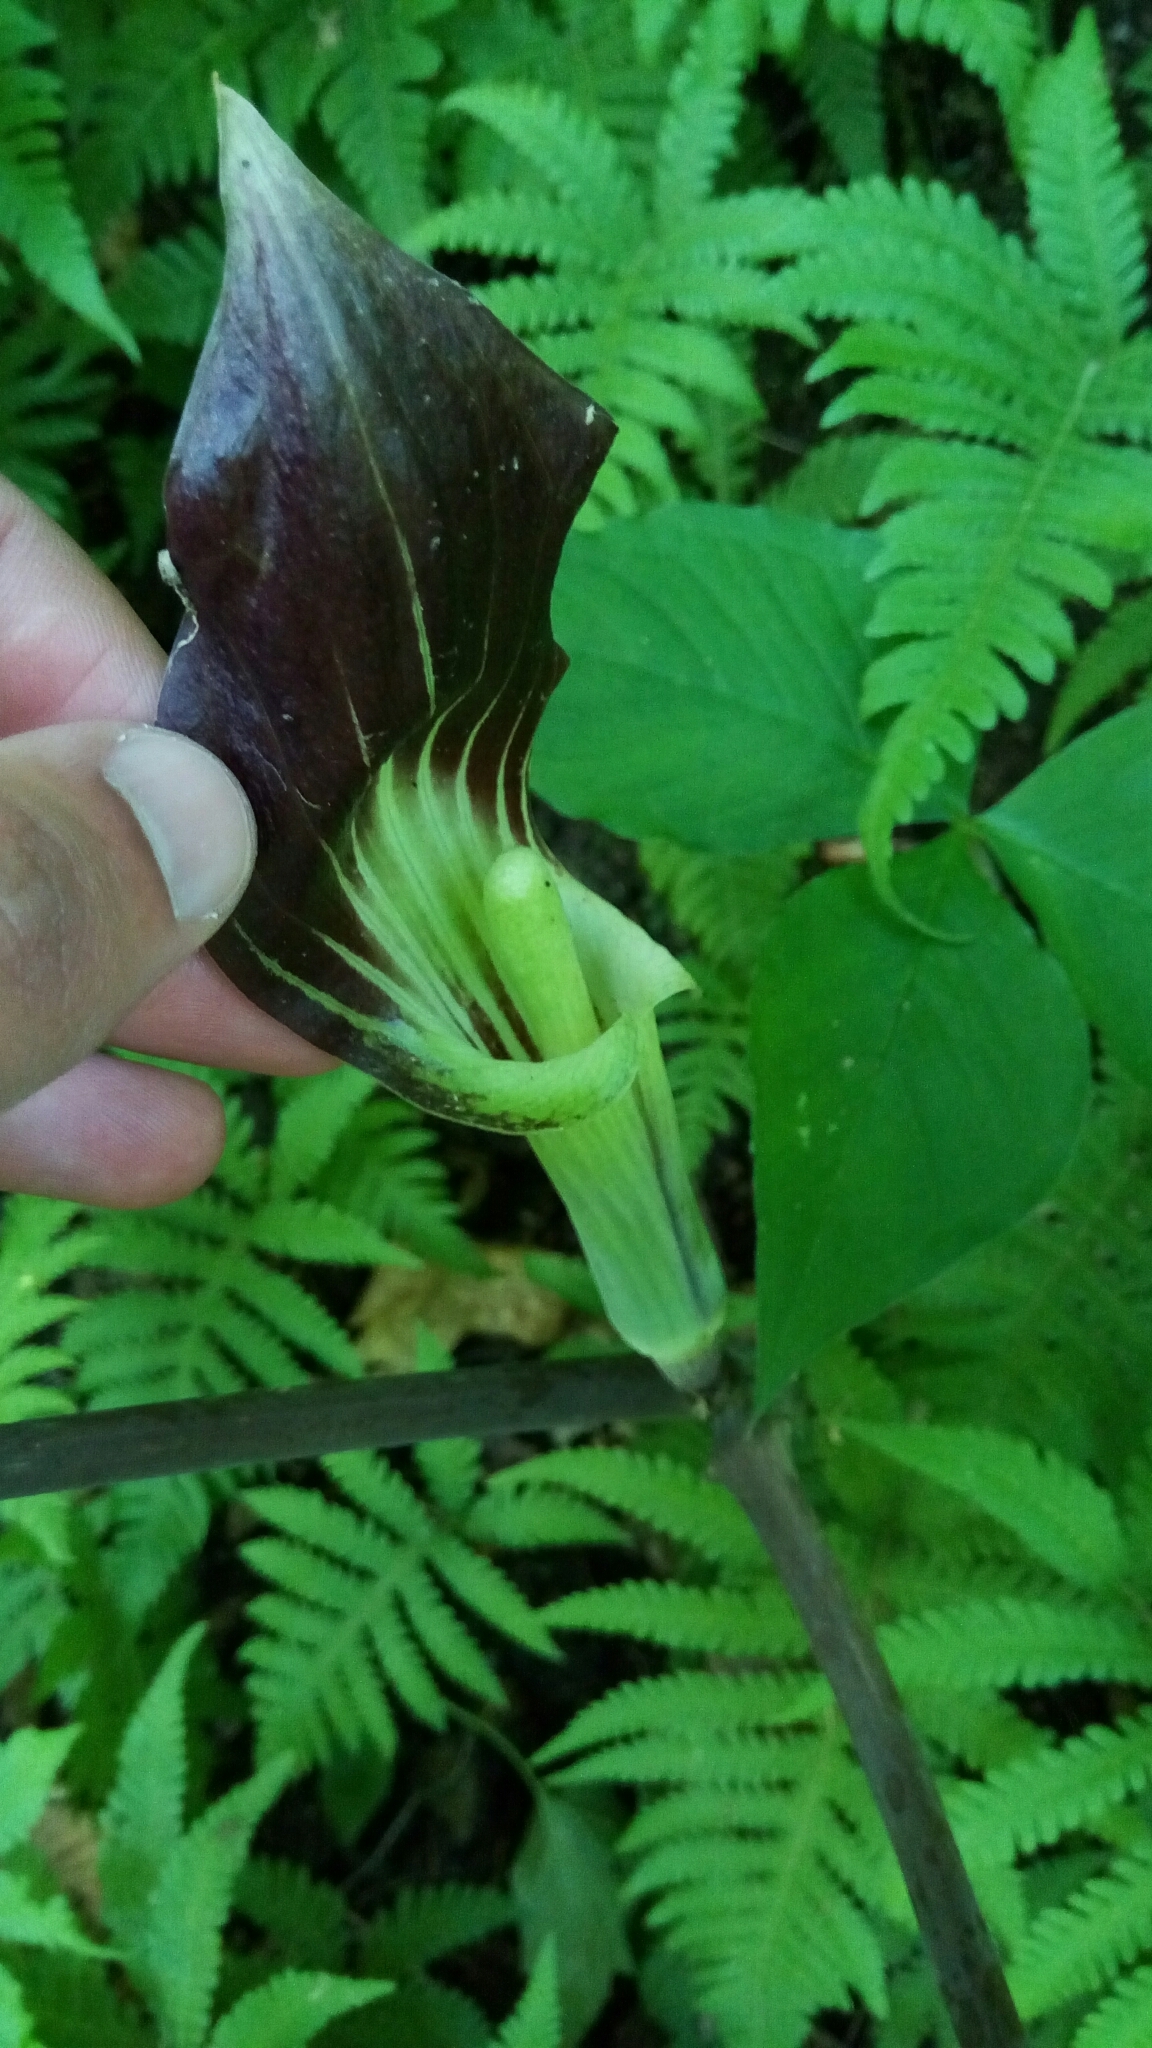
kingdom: Plantae
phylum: Tracheophyta
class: Liliopsida
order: Alismatales
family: Araceae
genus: Arisaema
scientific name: Arisaema triphyllum
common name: Jack-in-the-pulpit
